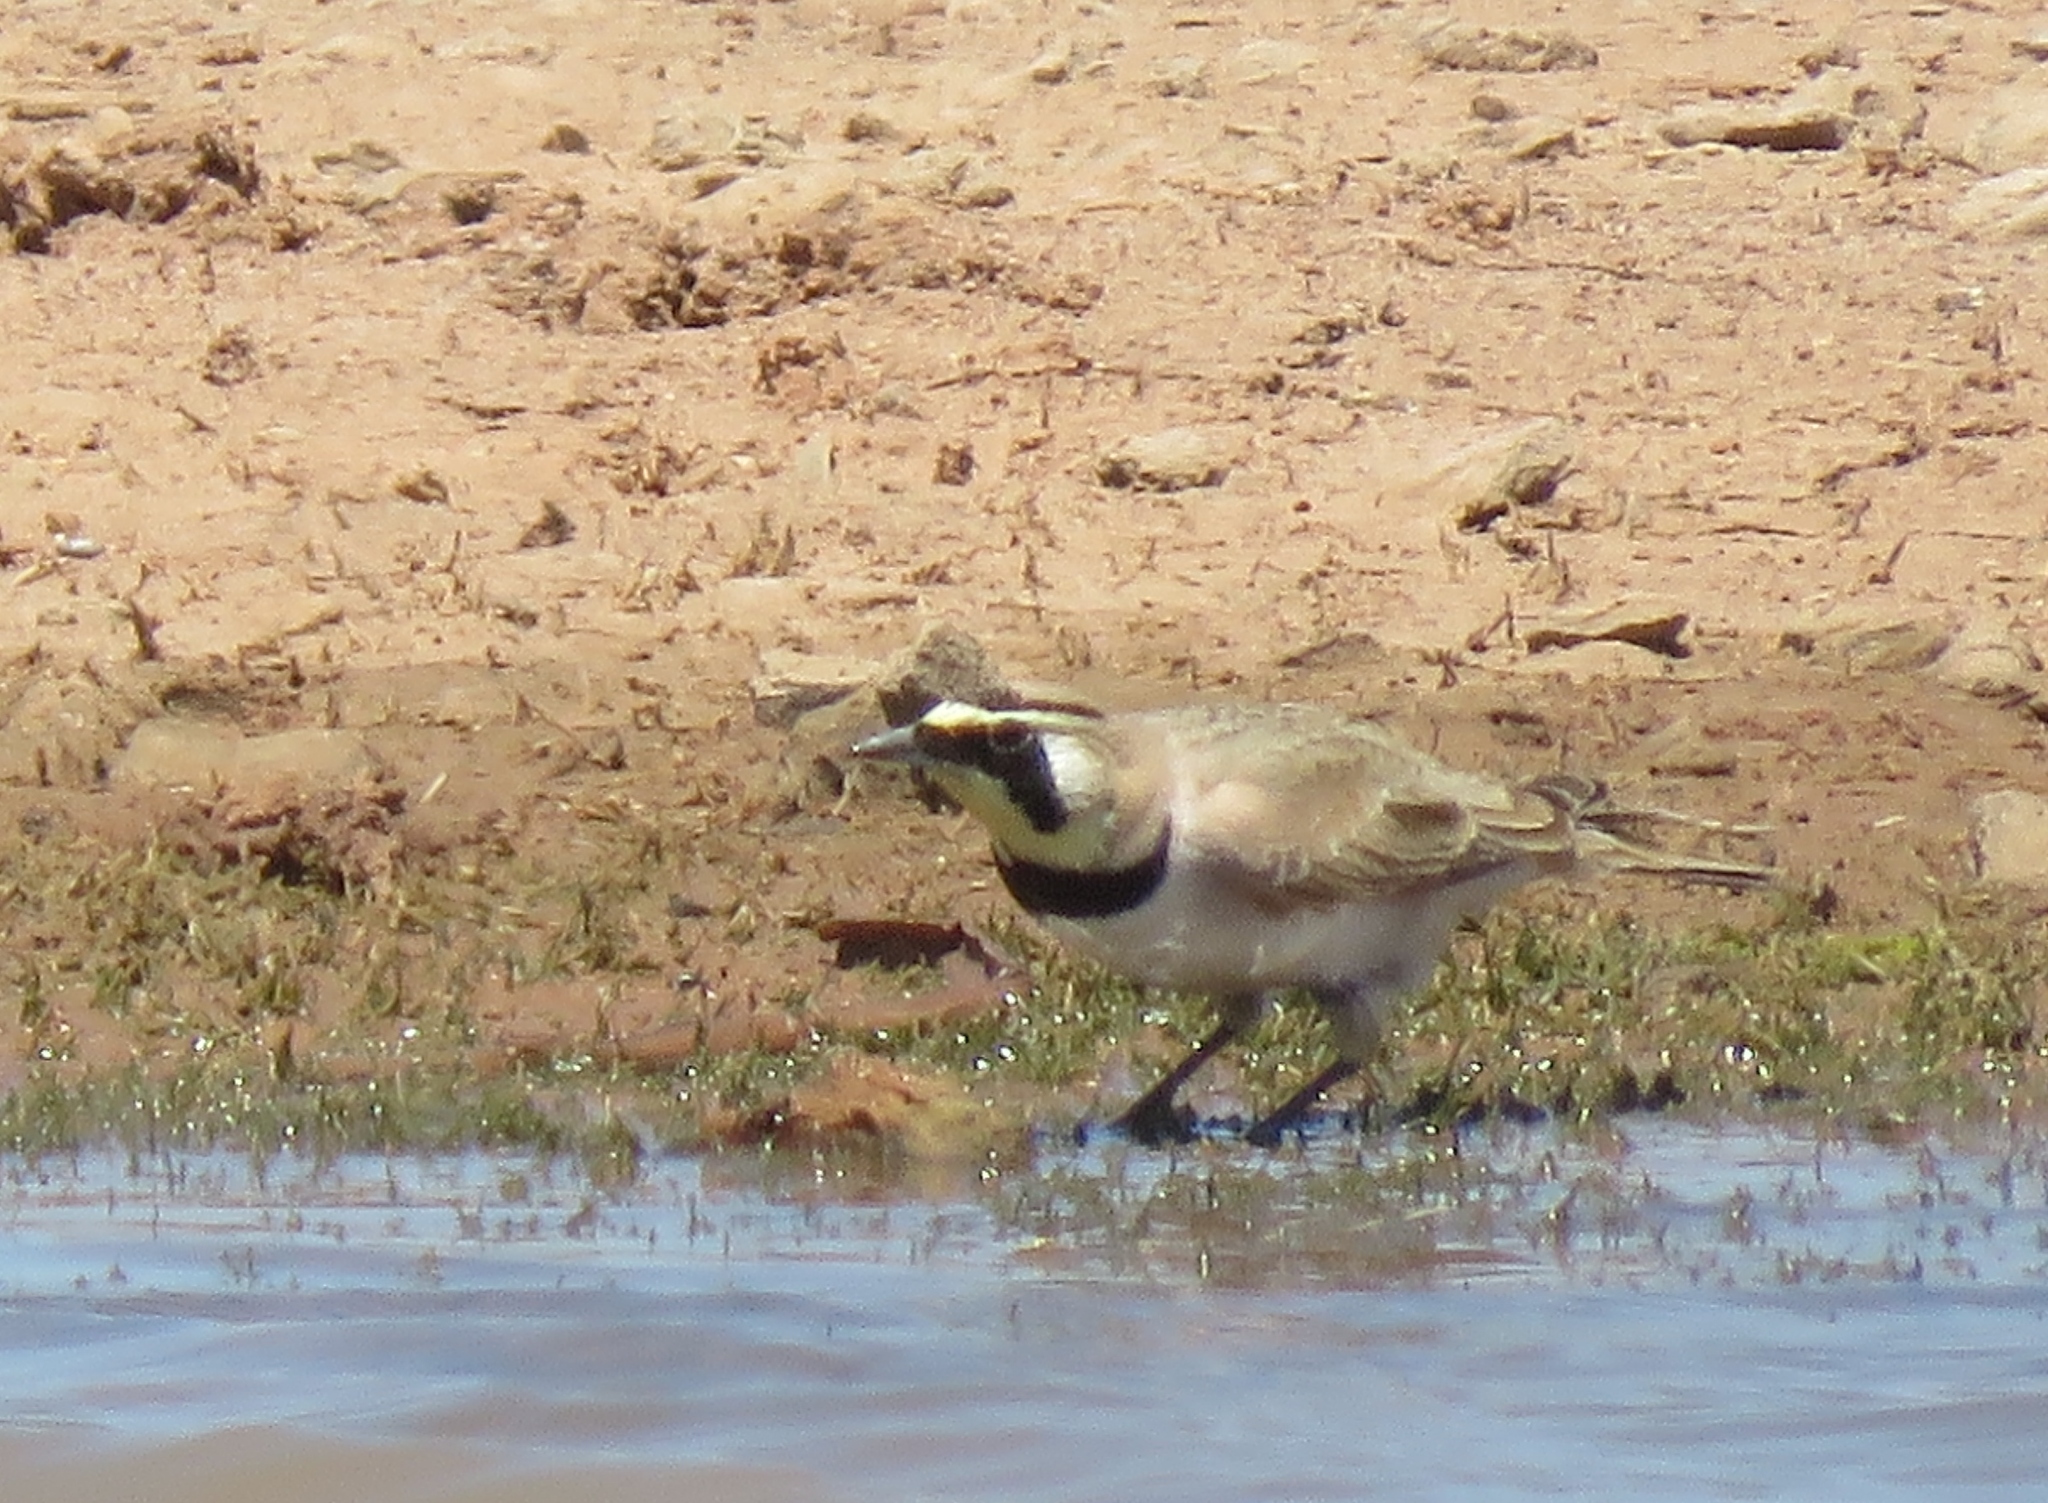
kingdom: Animalia
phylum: Chordata
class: Aves
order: Passeriformes
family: Alaudidae
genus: Eremophila
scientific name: Eremophila alpestris
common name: Horned lark
